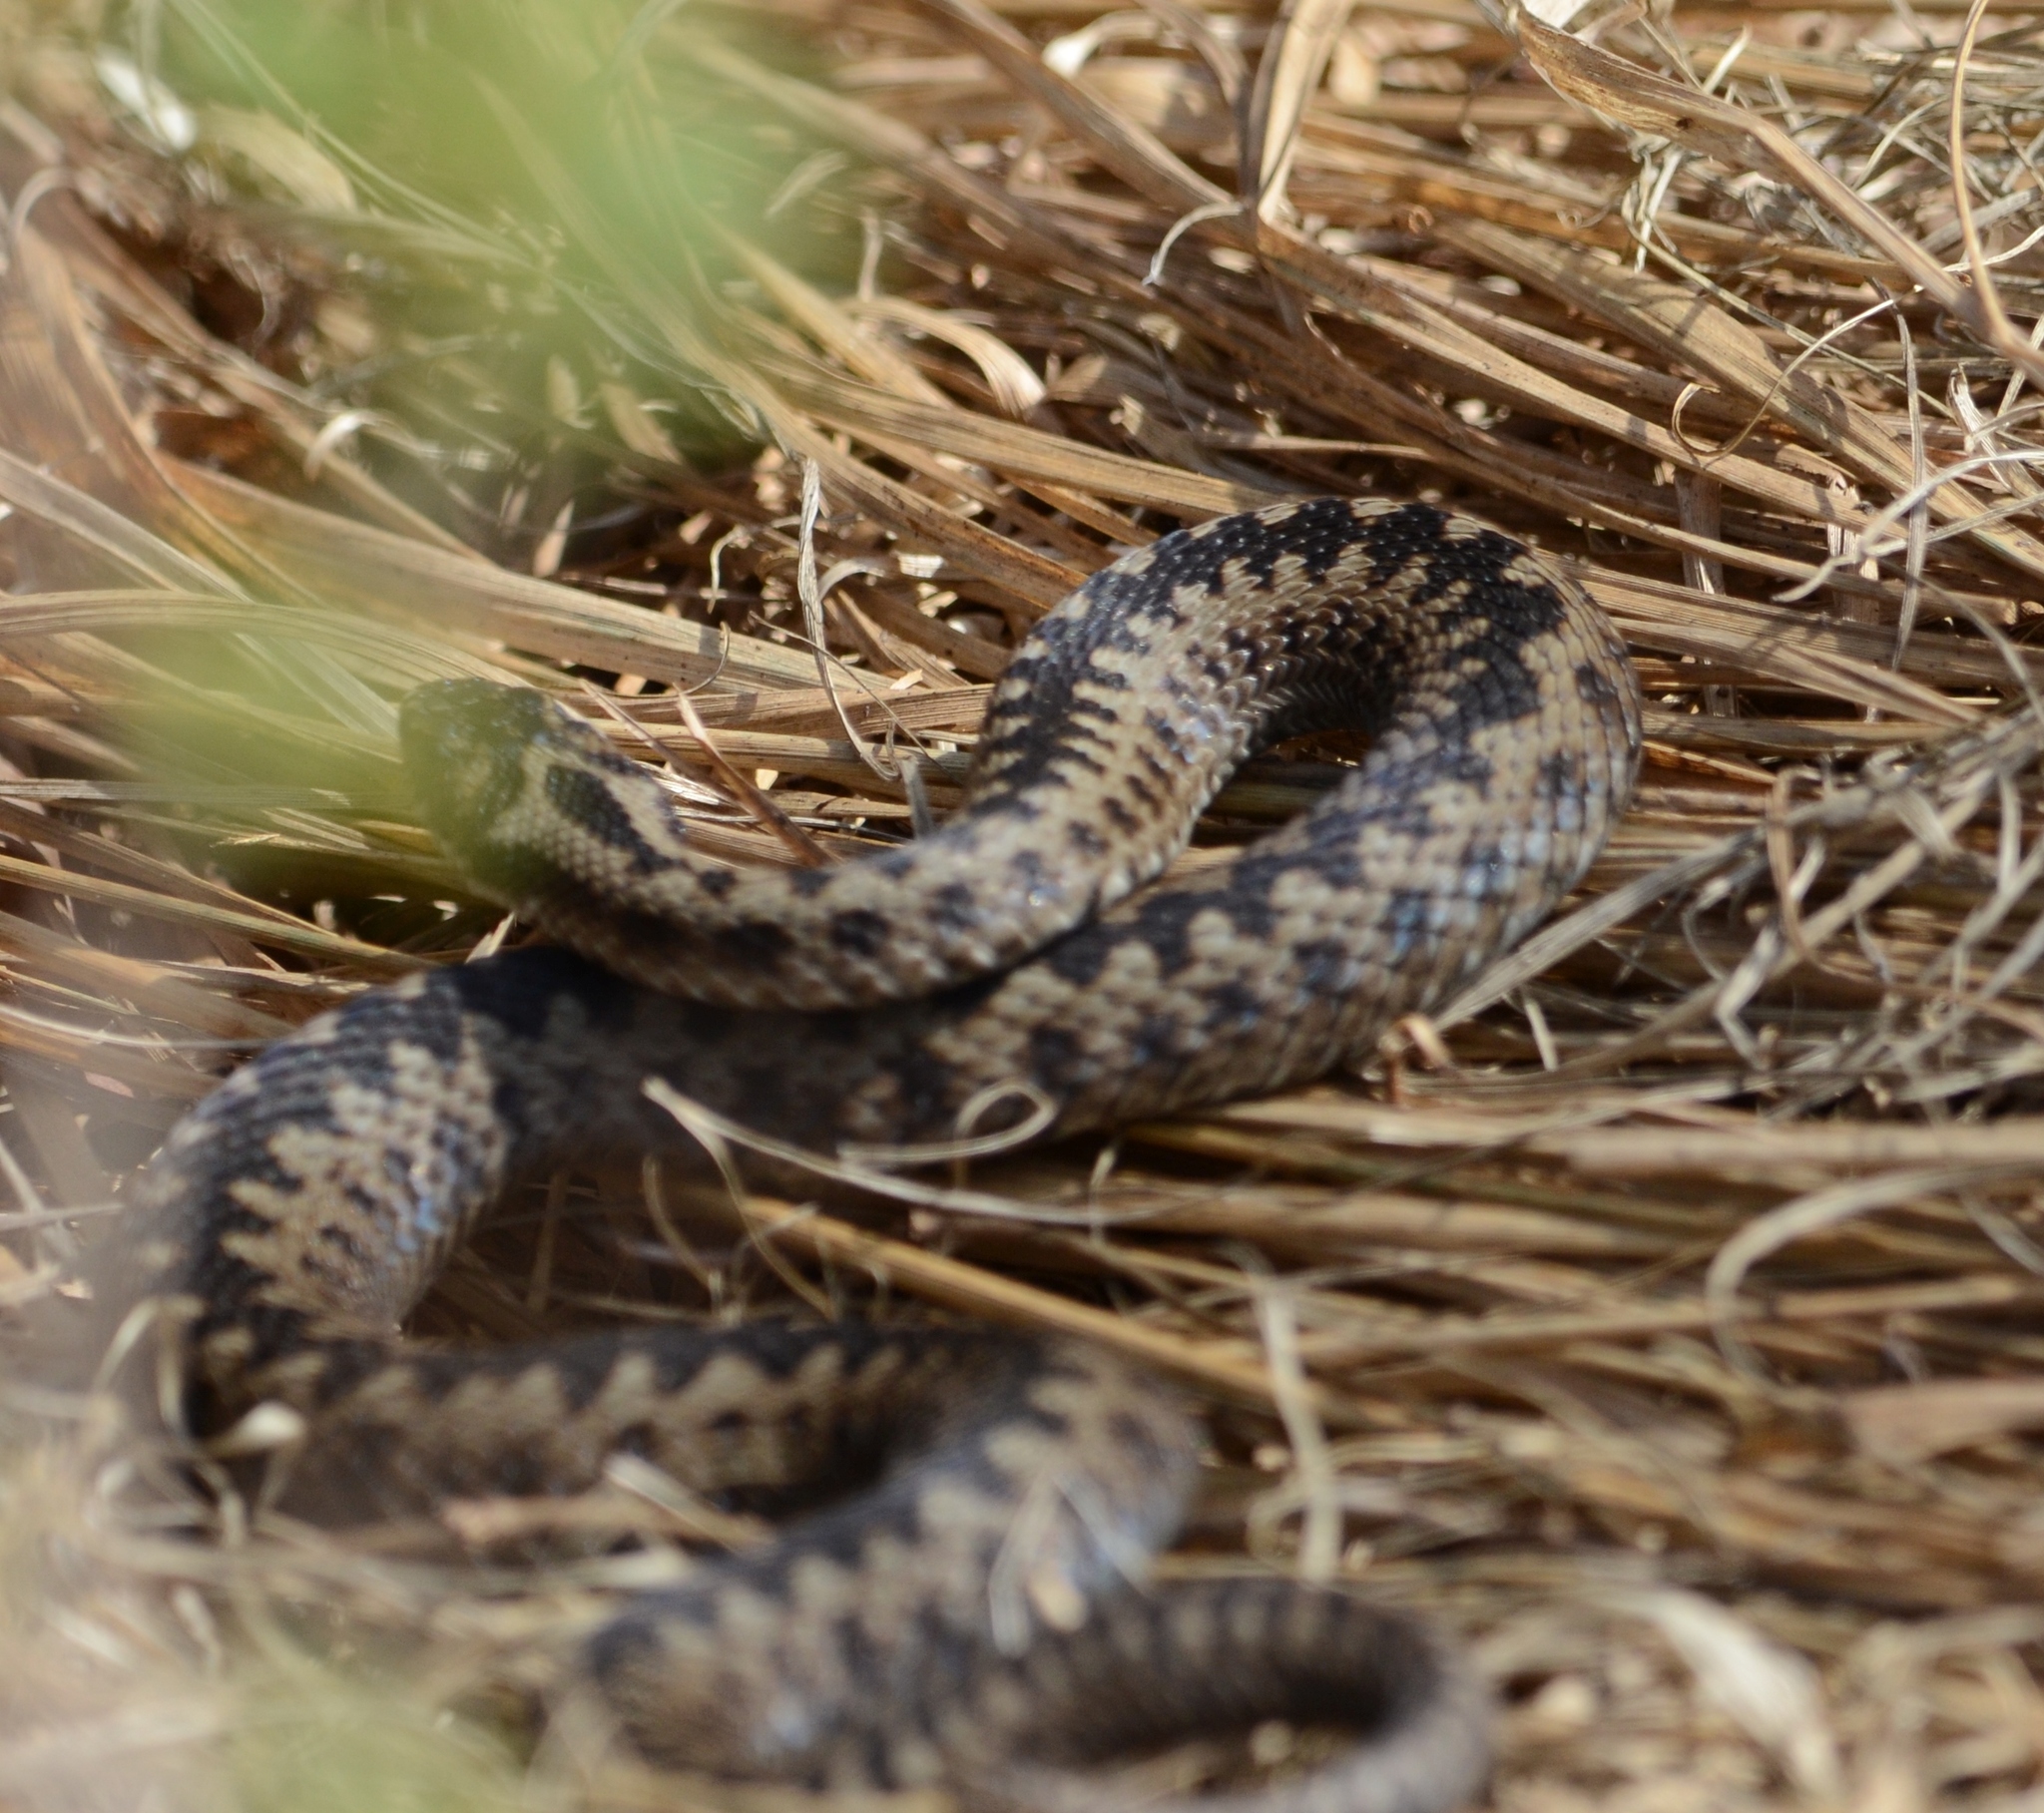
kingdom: Animalia
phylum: Chordata
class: Squamata
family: Viperidae
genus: Vipera
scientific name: Vipera berus
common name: Adder
